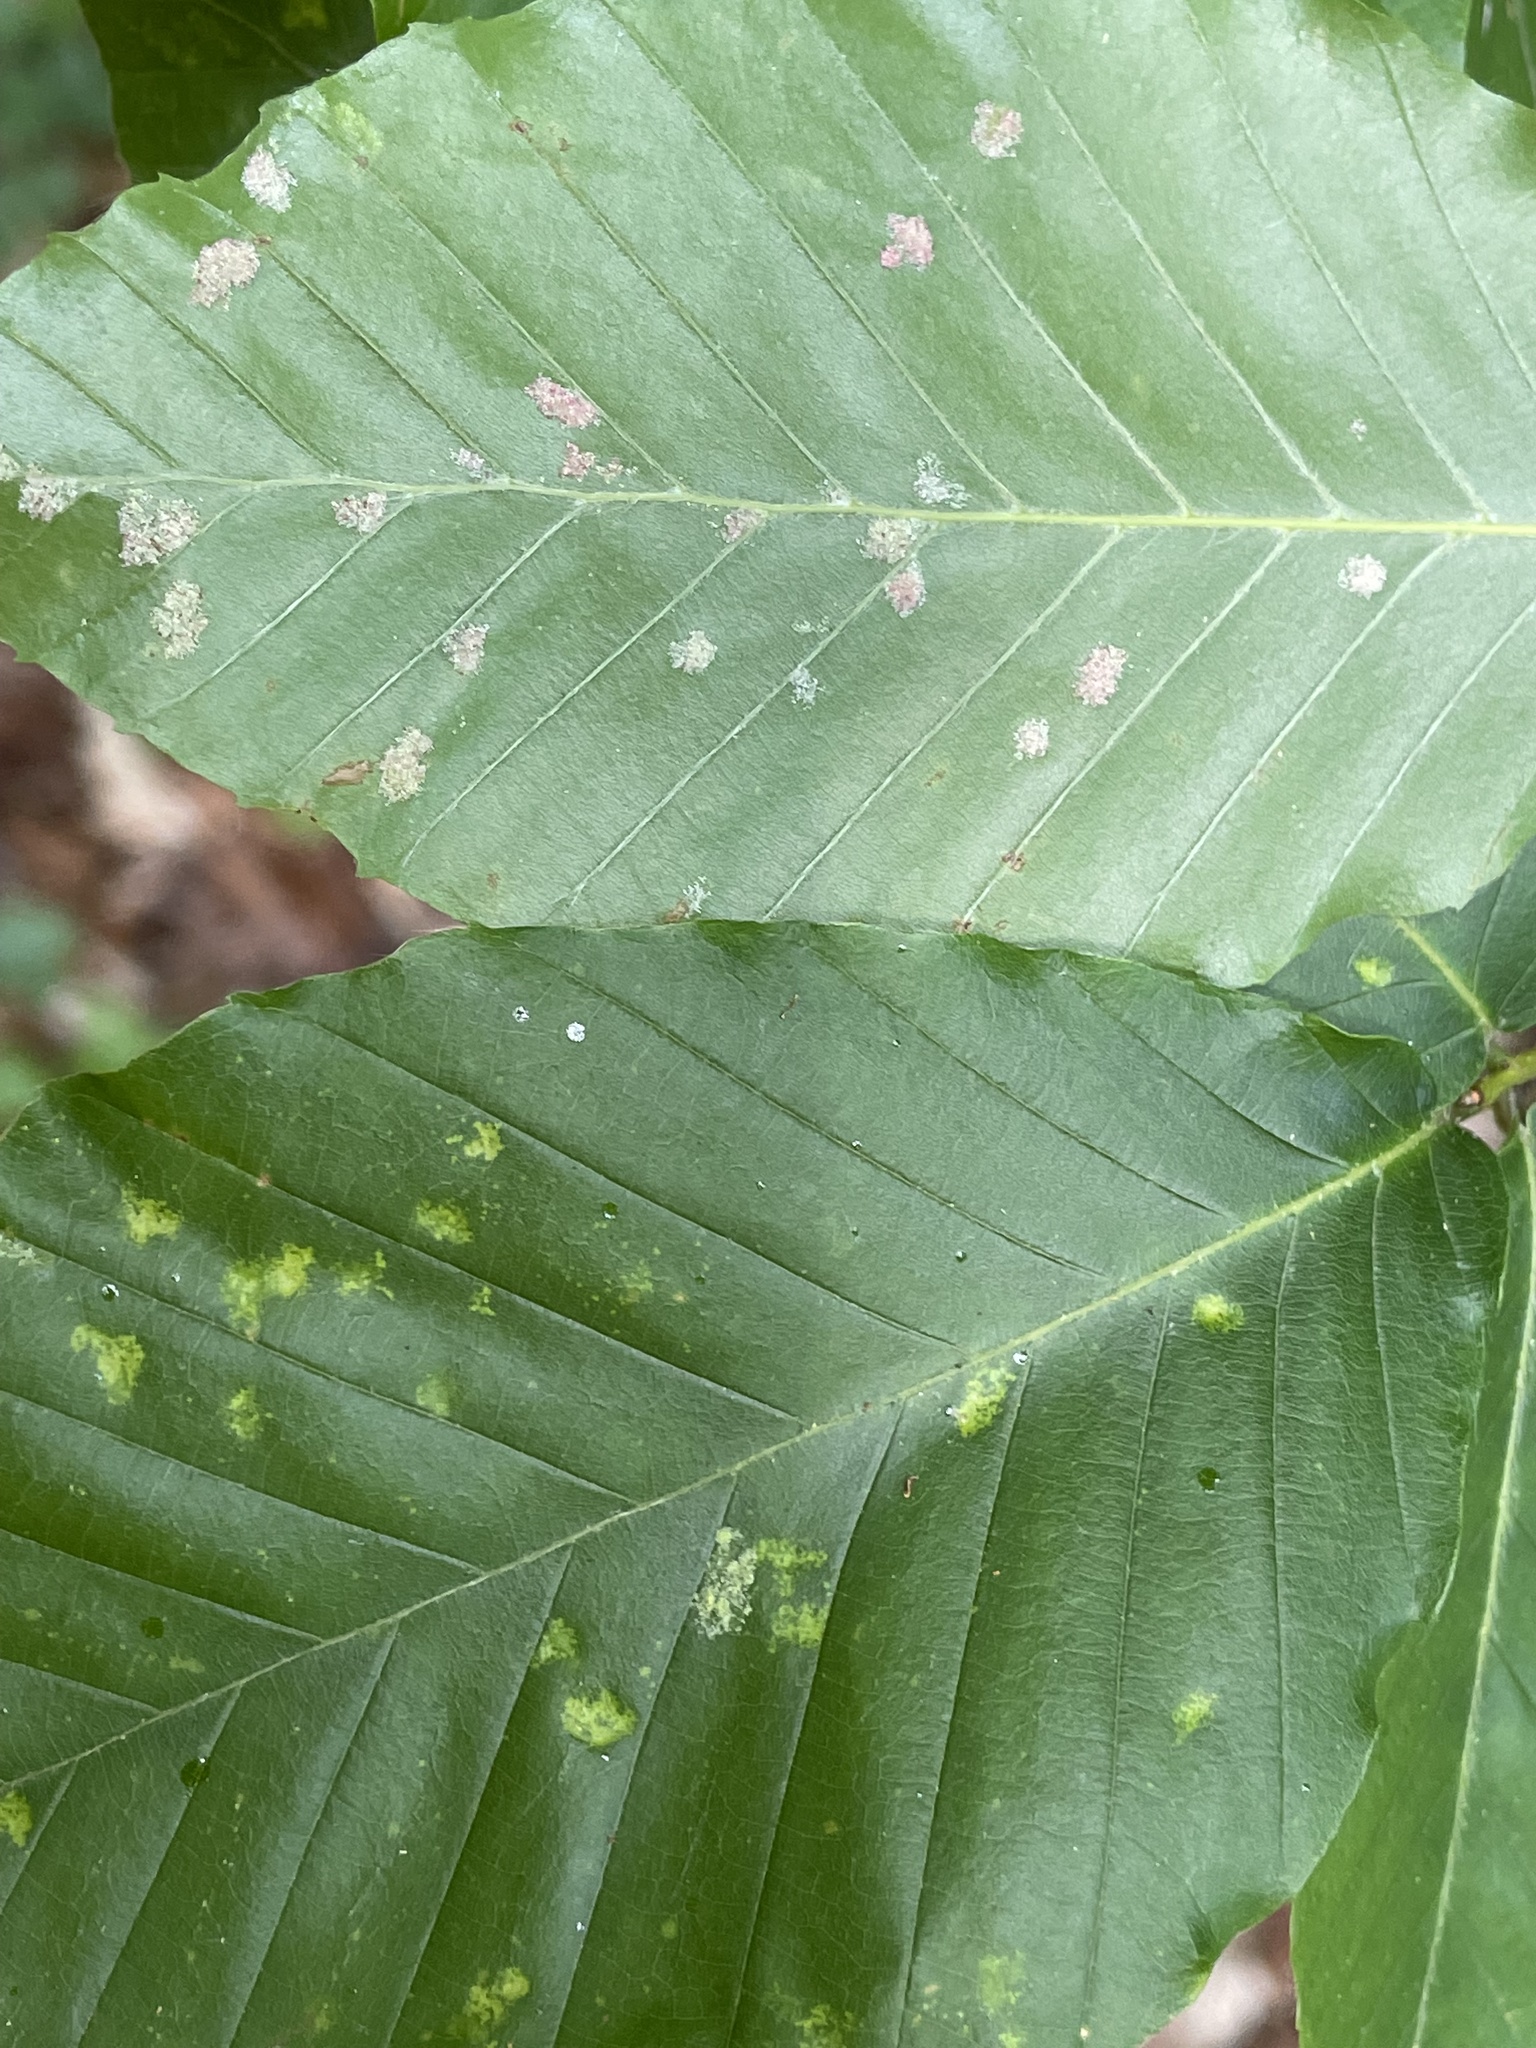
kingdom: Animalia
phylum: Arthropoda
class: Arachnida
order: Trombidiformes
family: Eriophyidae
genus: Acalitus
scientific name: Acalitus
